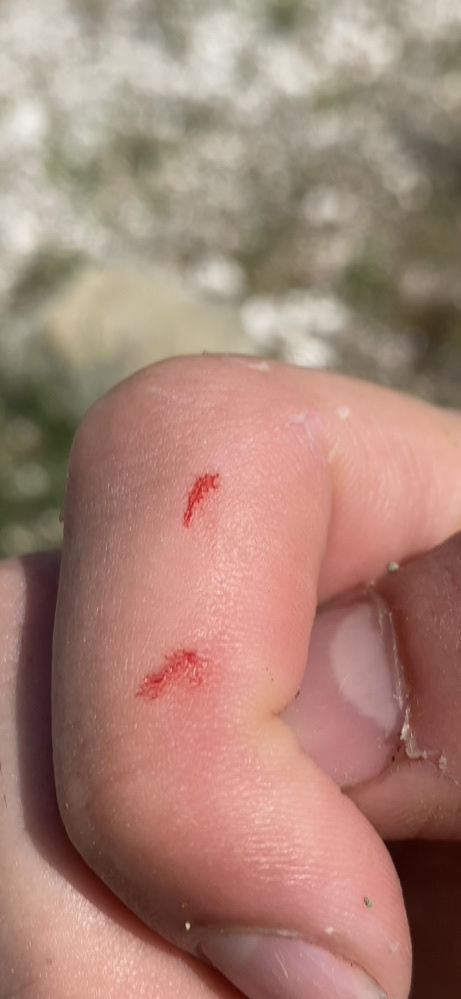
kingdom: Animalia
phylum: Arthropoda
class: Malacostraca
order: Decapoda
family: Cambaridae
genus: Procambarus
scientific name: Procambarus clarkii
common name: Red swamp crayfish
